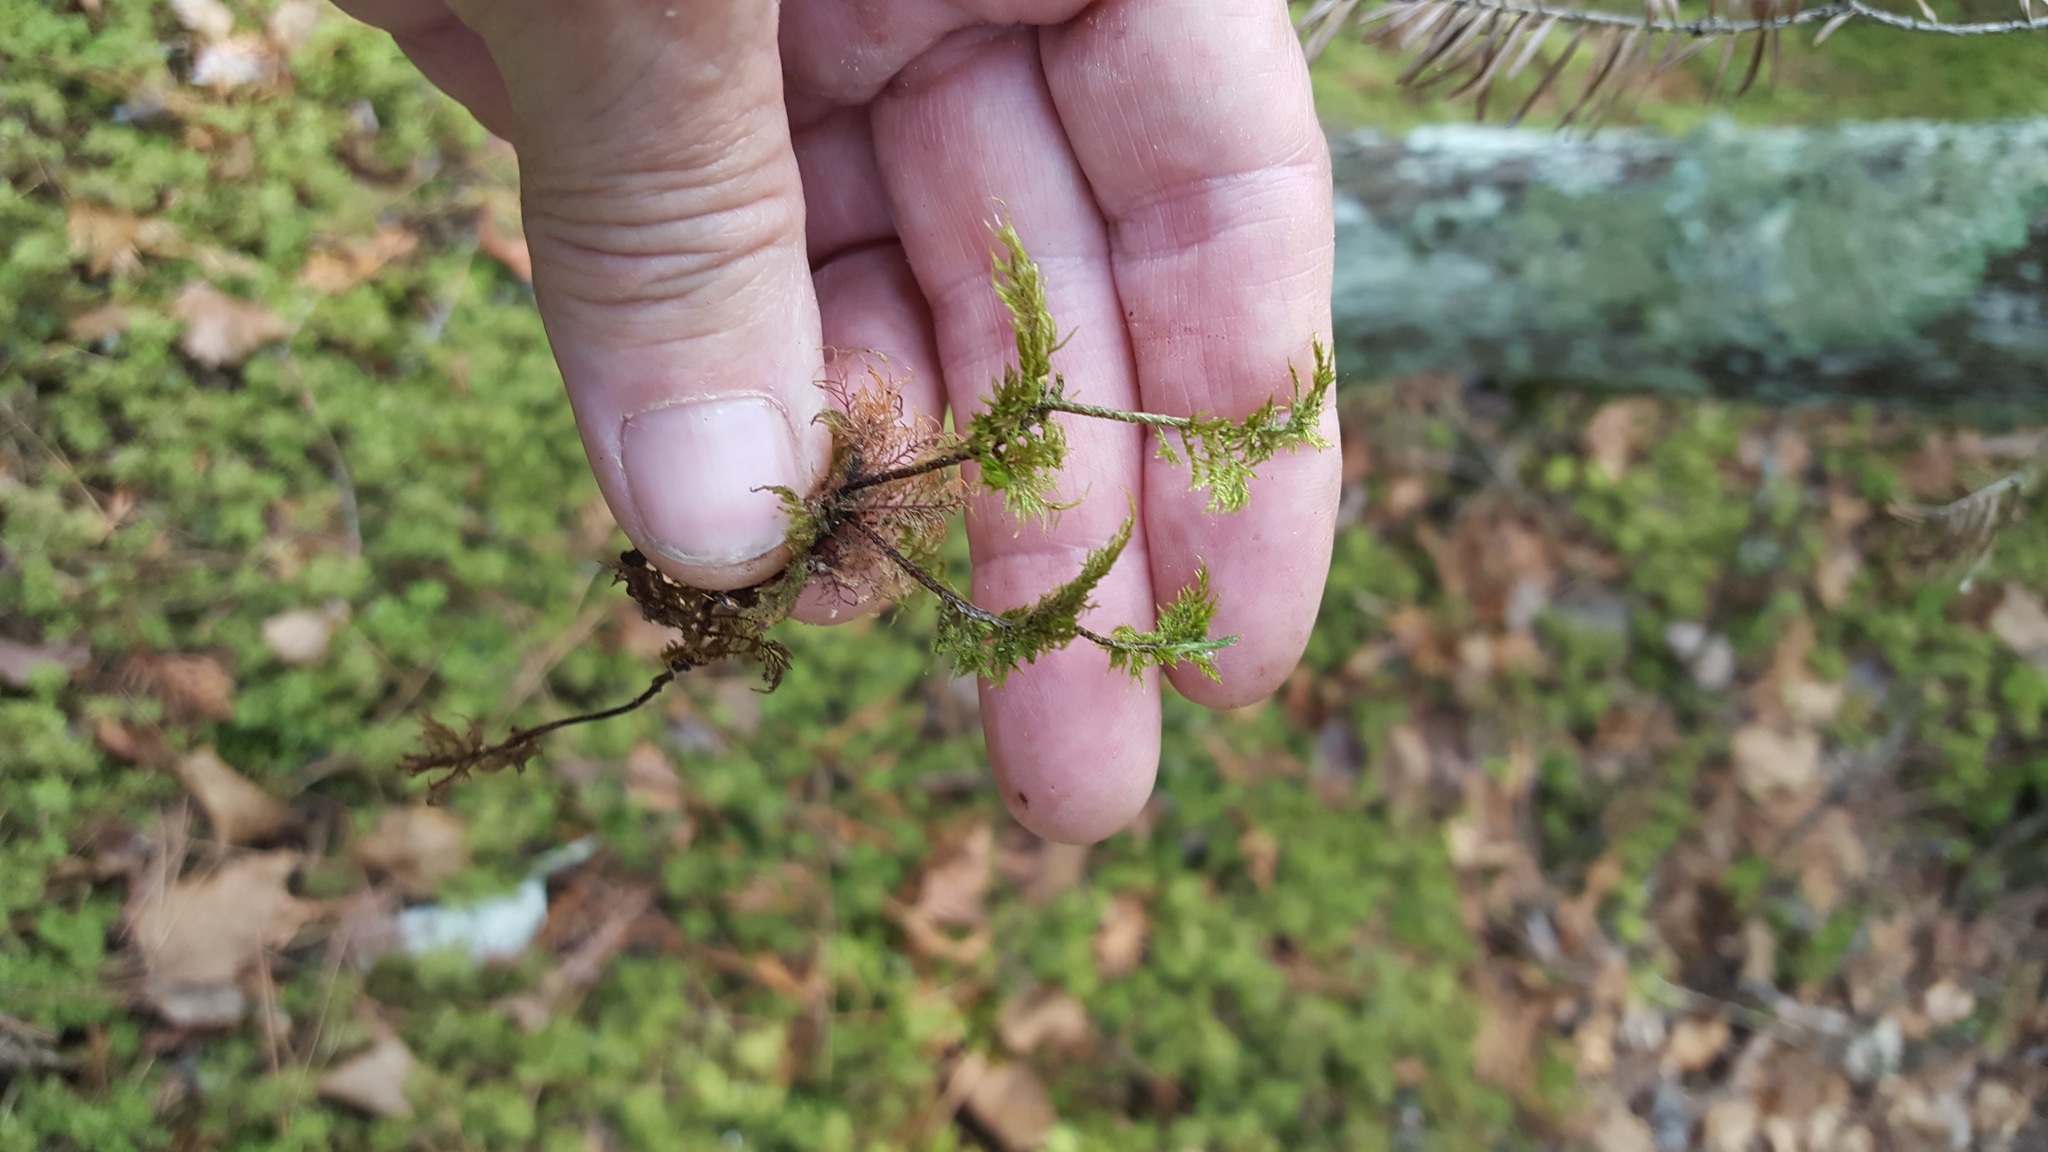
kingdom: Plantae
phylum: Bryophyta
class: Bryopsida
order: Hypnales
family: Hylocomiaceae
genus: Hylocomium
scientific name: Hylocomium splendens
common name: Stairstep moss
